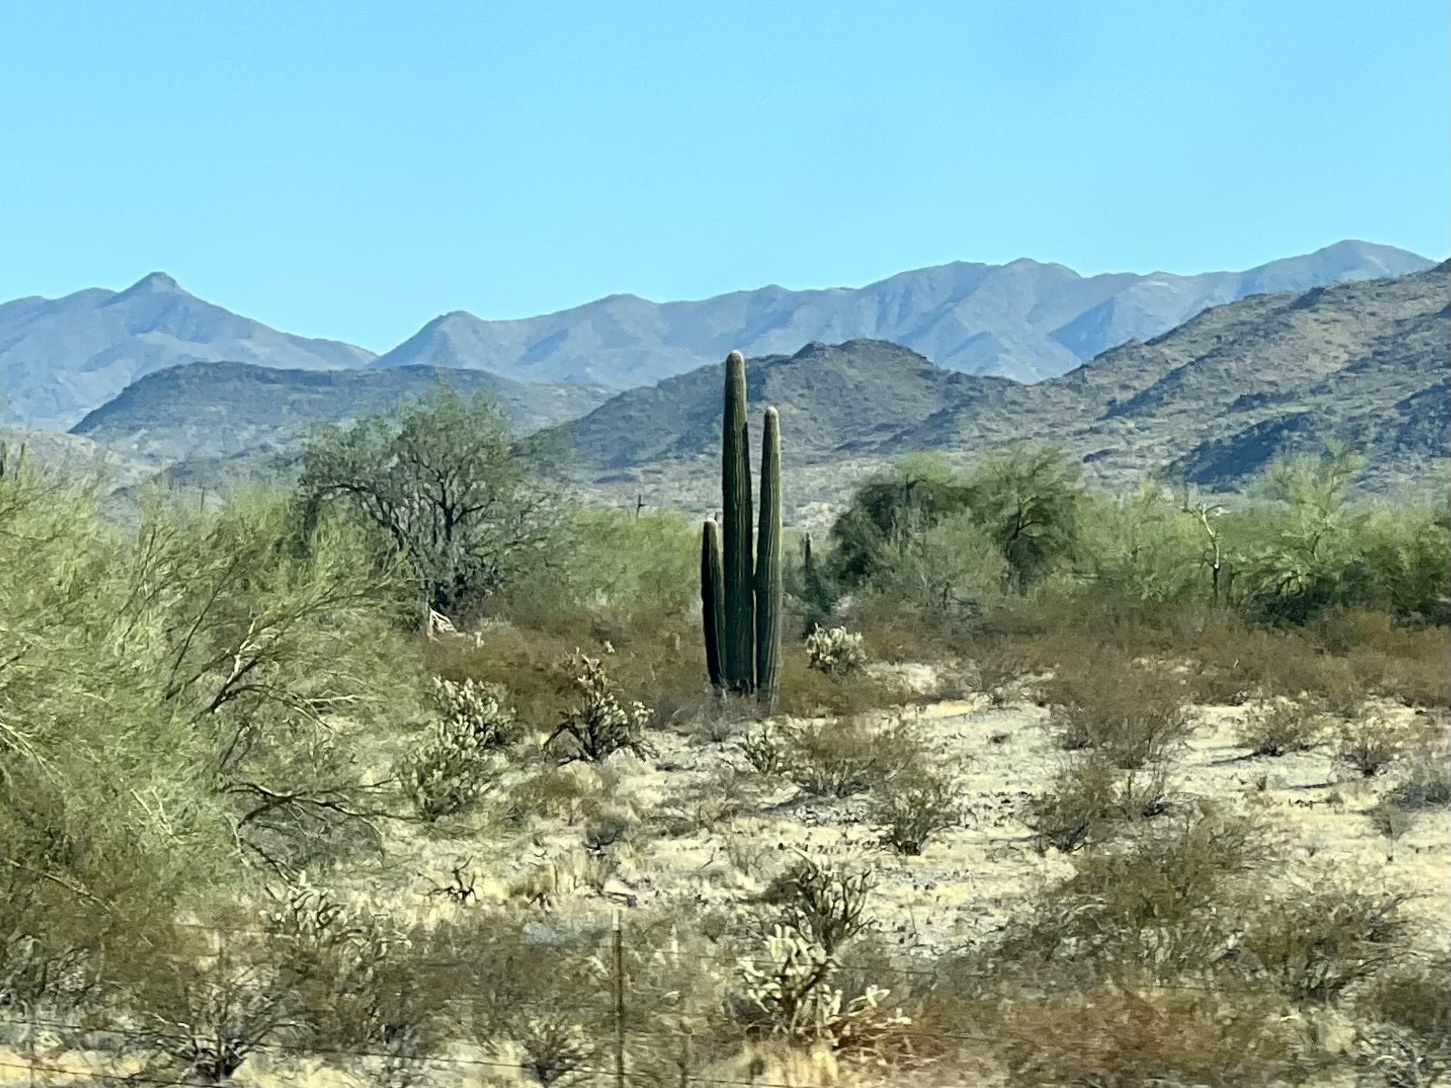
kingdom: Plantae
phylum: Tracheophyta
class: Magnoliopsida
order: Caryophyllales
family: Cactaceae
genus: Carnegiea
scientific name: Carnegiea gigantea
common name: Saguaro
